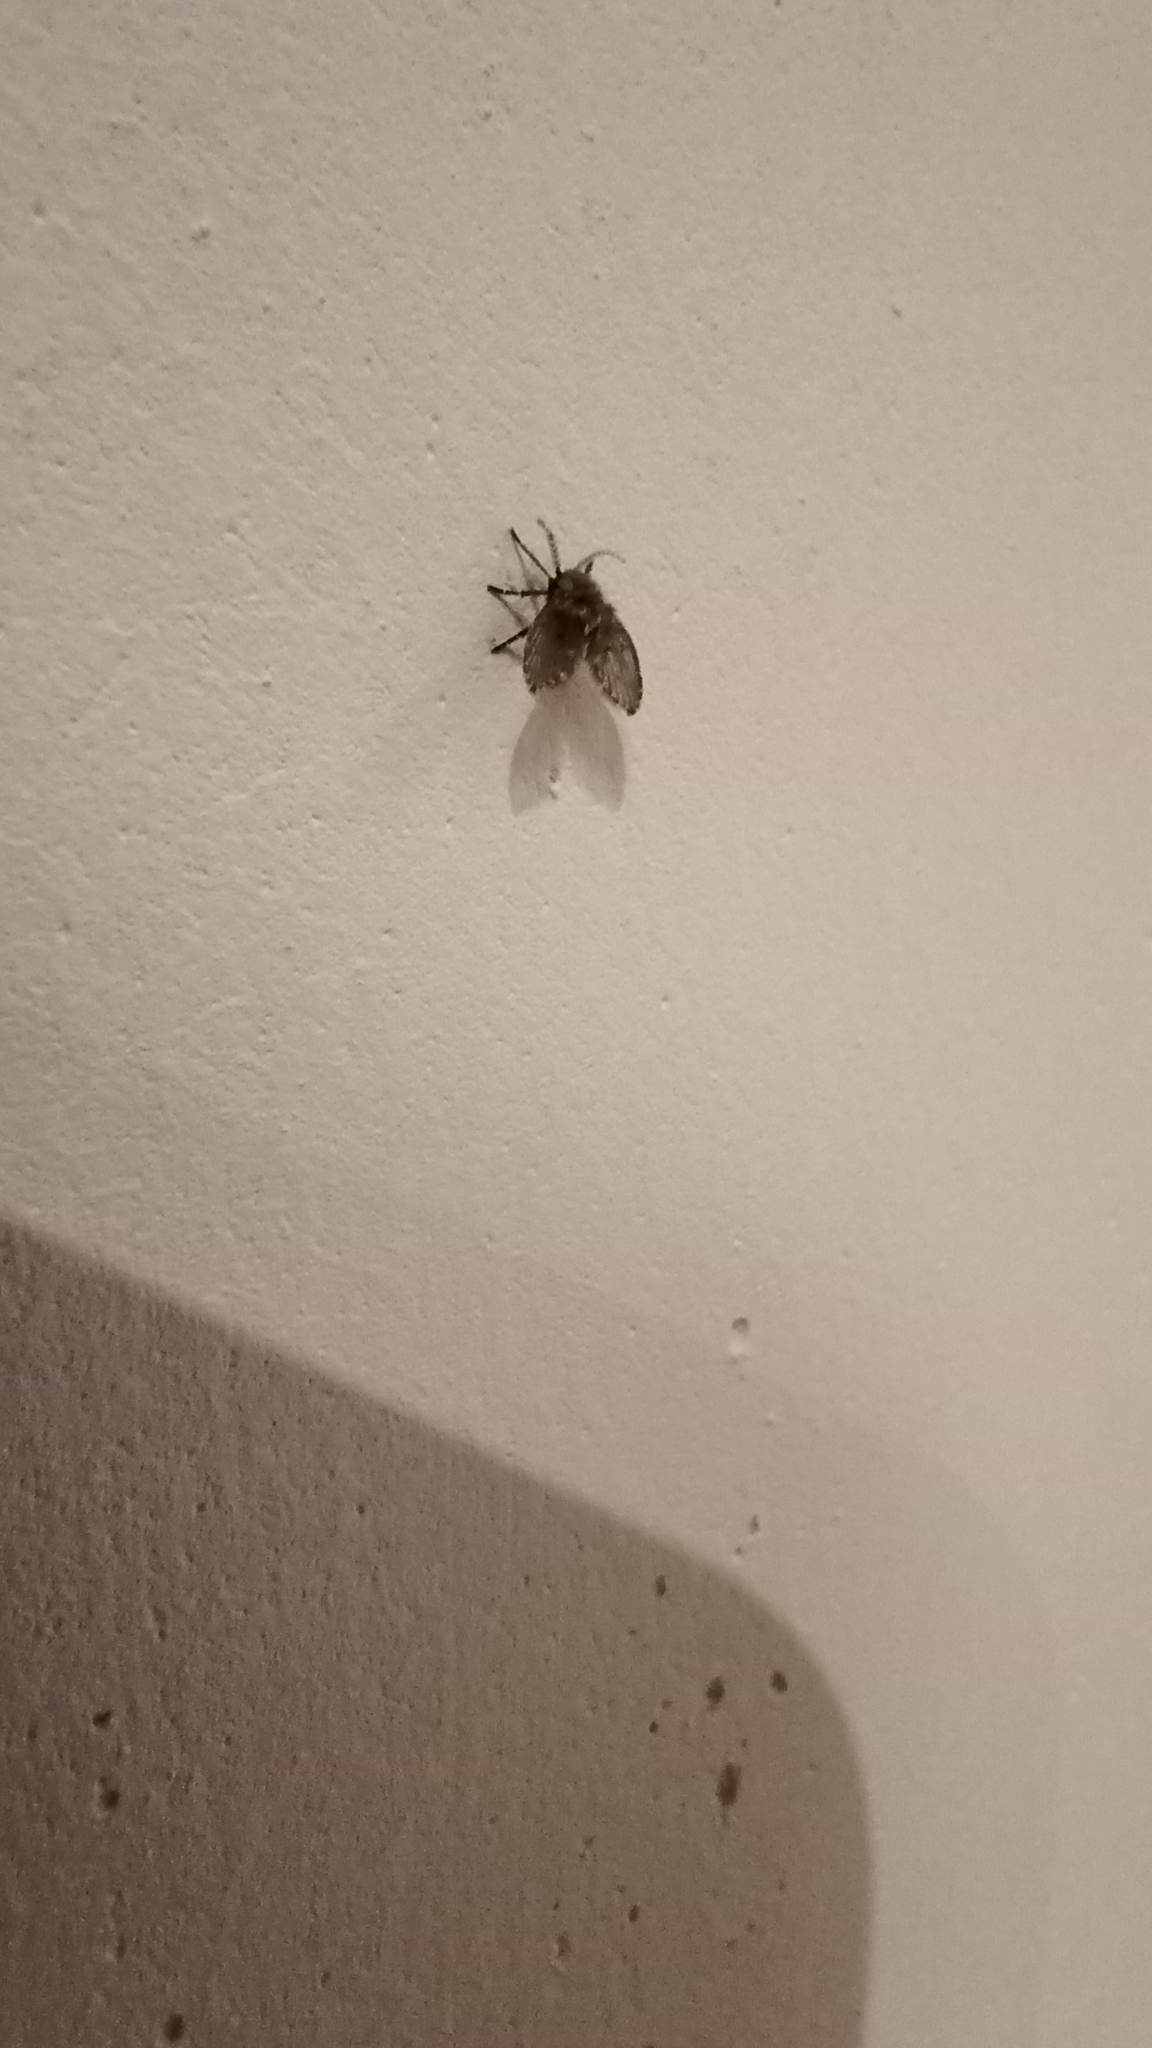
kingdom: Animalia
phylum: Arthropoda
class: Insecta
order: Diptera
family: Psychodidae
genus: Clogmia
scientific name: Clogmia albipunctatus
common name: White-spotted moth fly
